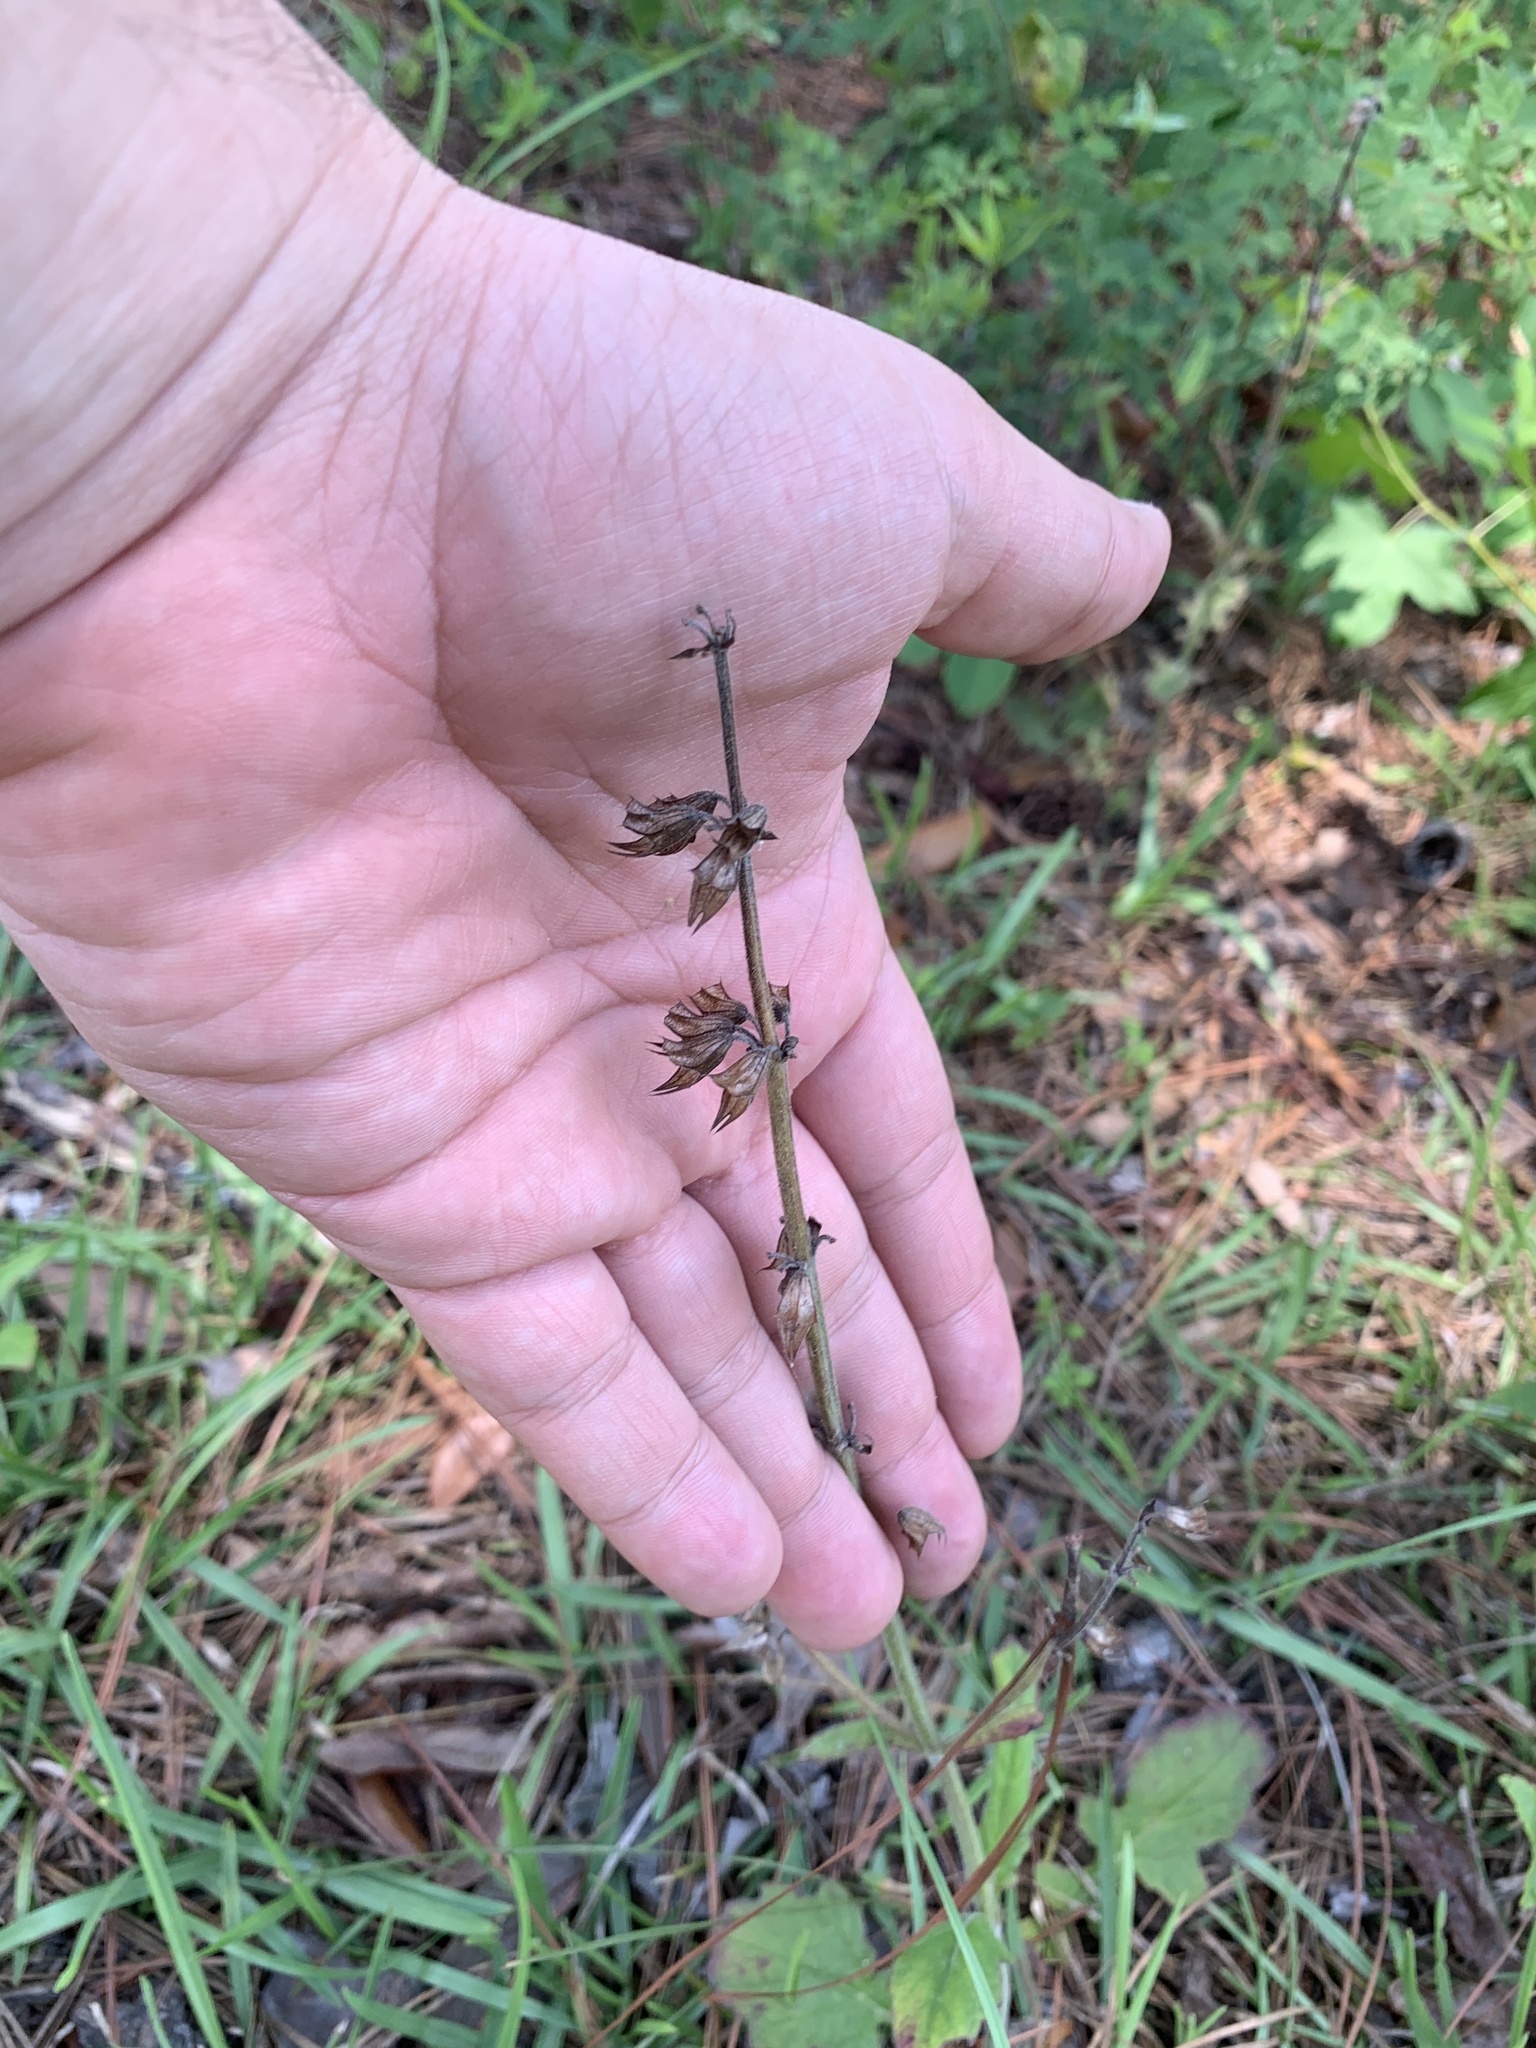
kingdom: Plantae
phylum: Tracheophyta
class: Magnoliopsida
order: Lamiales
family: Lamiaceae
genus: Salvia
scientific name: Salvia lyrata
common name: Cancerweed
